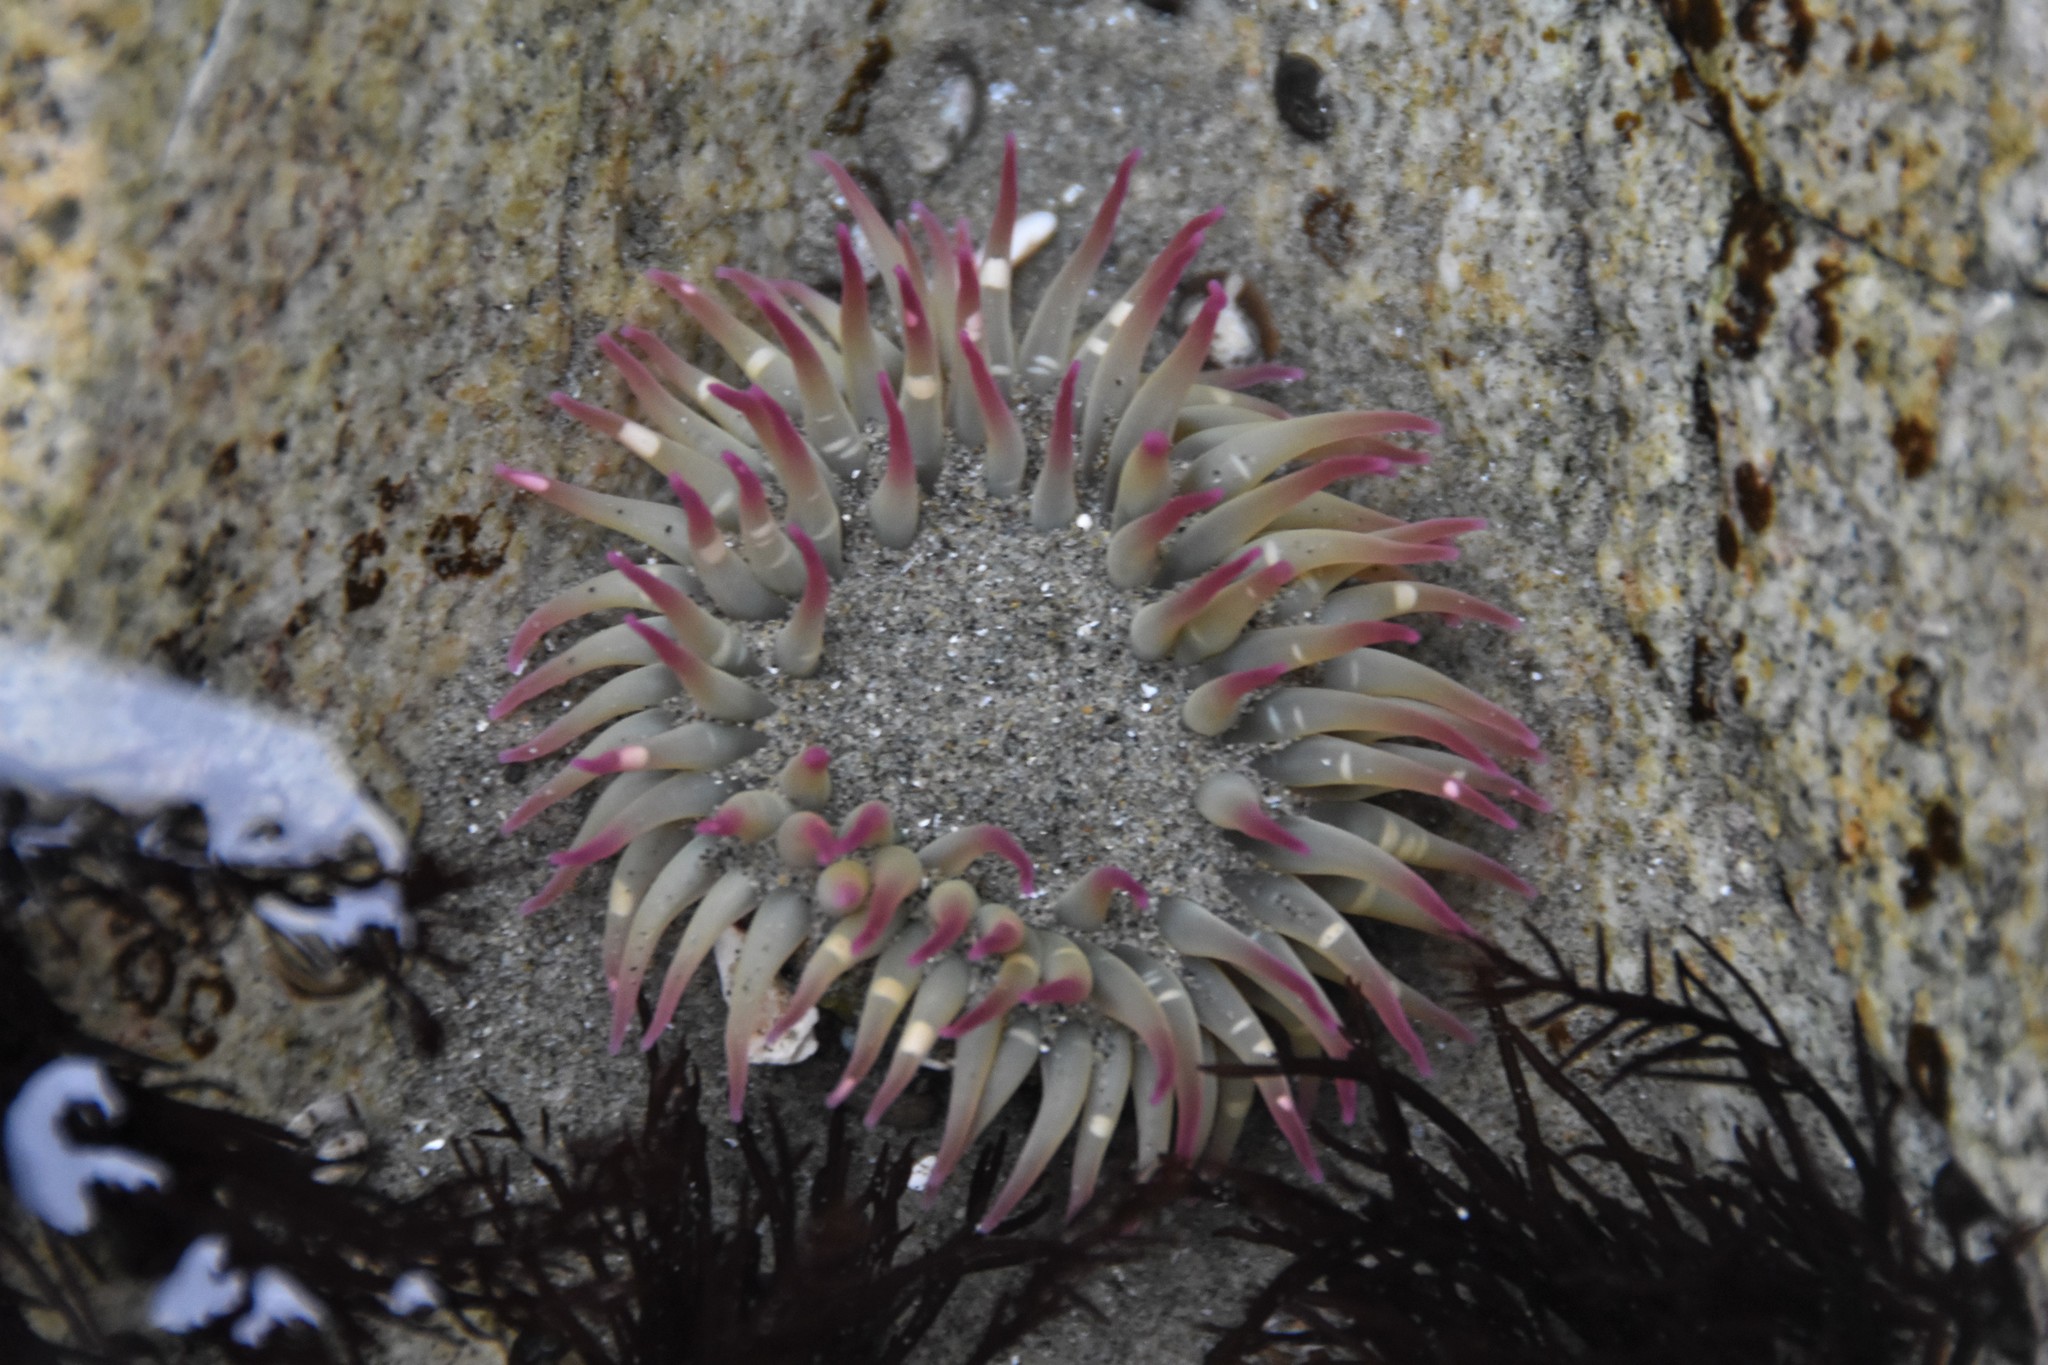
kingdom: Animalia
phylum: Cnidaria
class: Anthozoa
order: Actiniaria
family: Actiniidae
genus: Anthopleura
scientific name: Anthopleura elegantissima
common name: Clonal anemone
